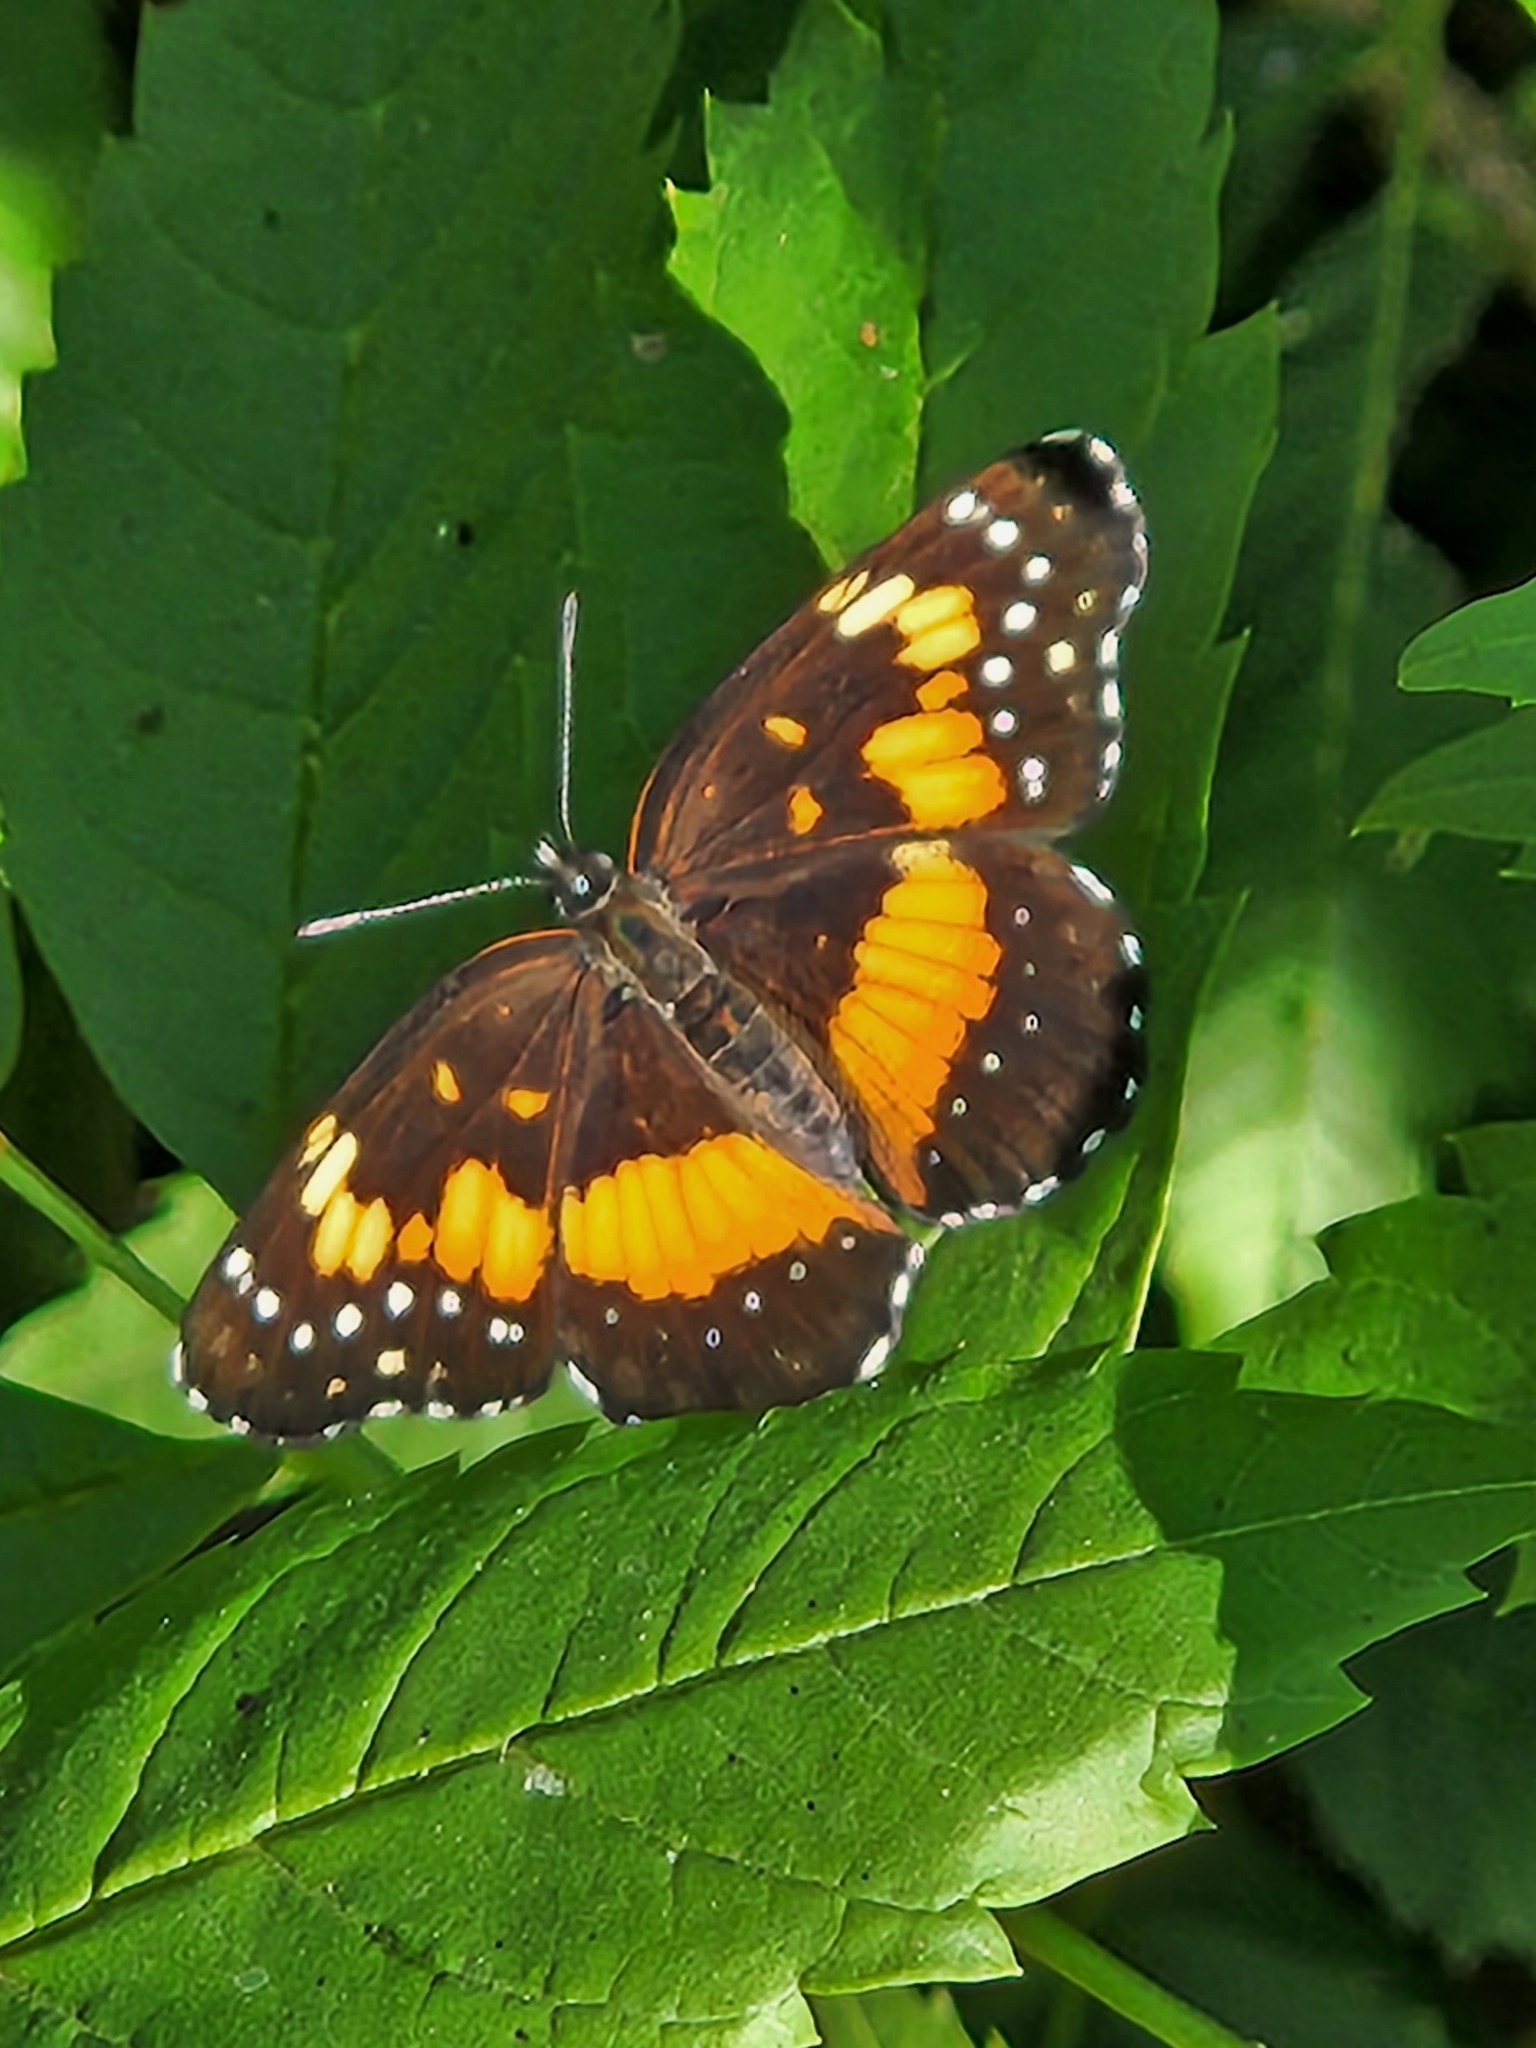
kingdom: Animalia
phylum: Arthropoda
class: Insecta
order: Lepidoptera
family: Nymphalidae
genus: Chlosyne
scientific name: Chlosyne lacinia
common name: Bordered patch
